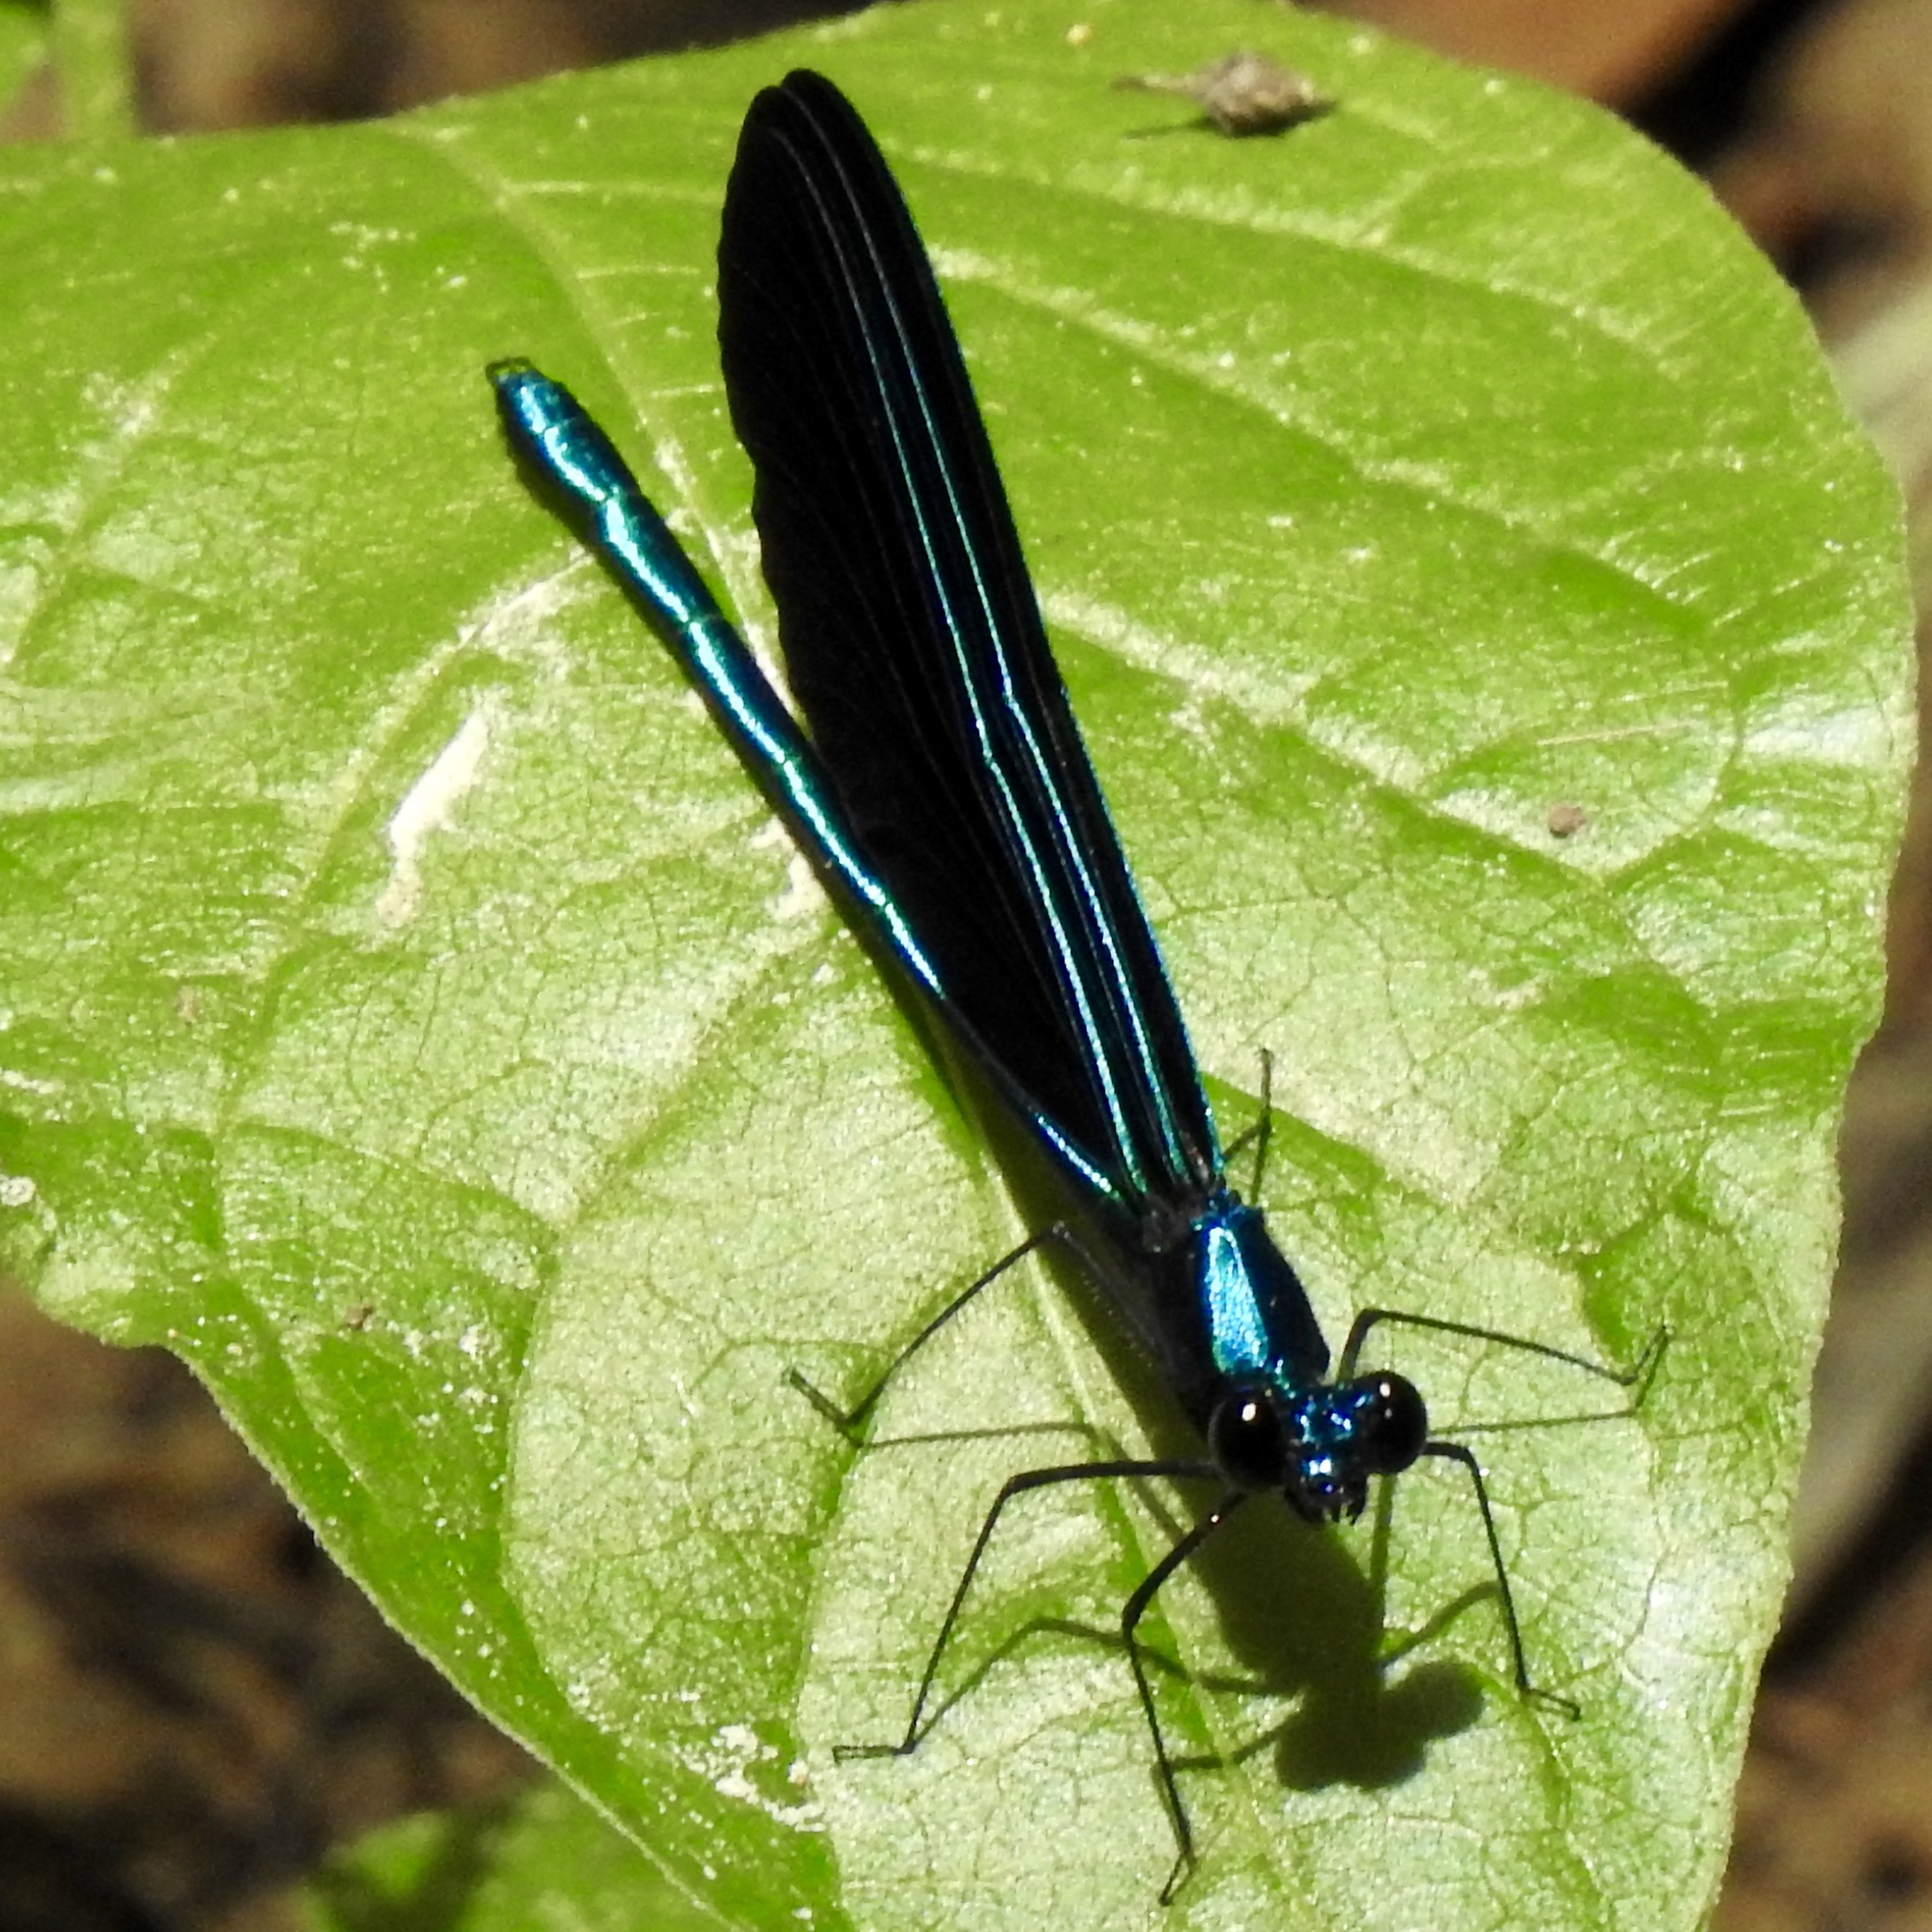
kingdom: Animalia
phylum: Arthropoda
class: Insecta
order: Odonata
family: Calopterygidae
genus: Calopteryx
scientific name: Calopteryx maculata
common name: Ebony jewelwing
